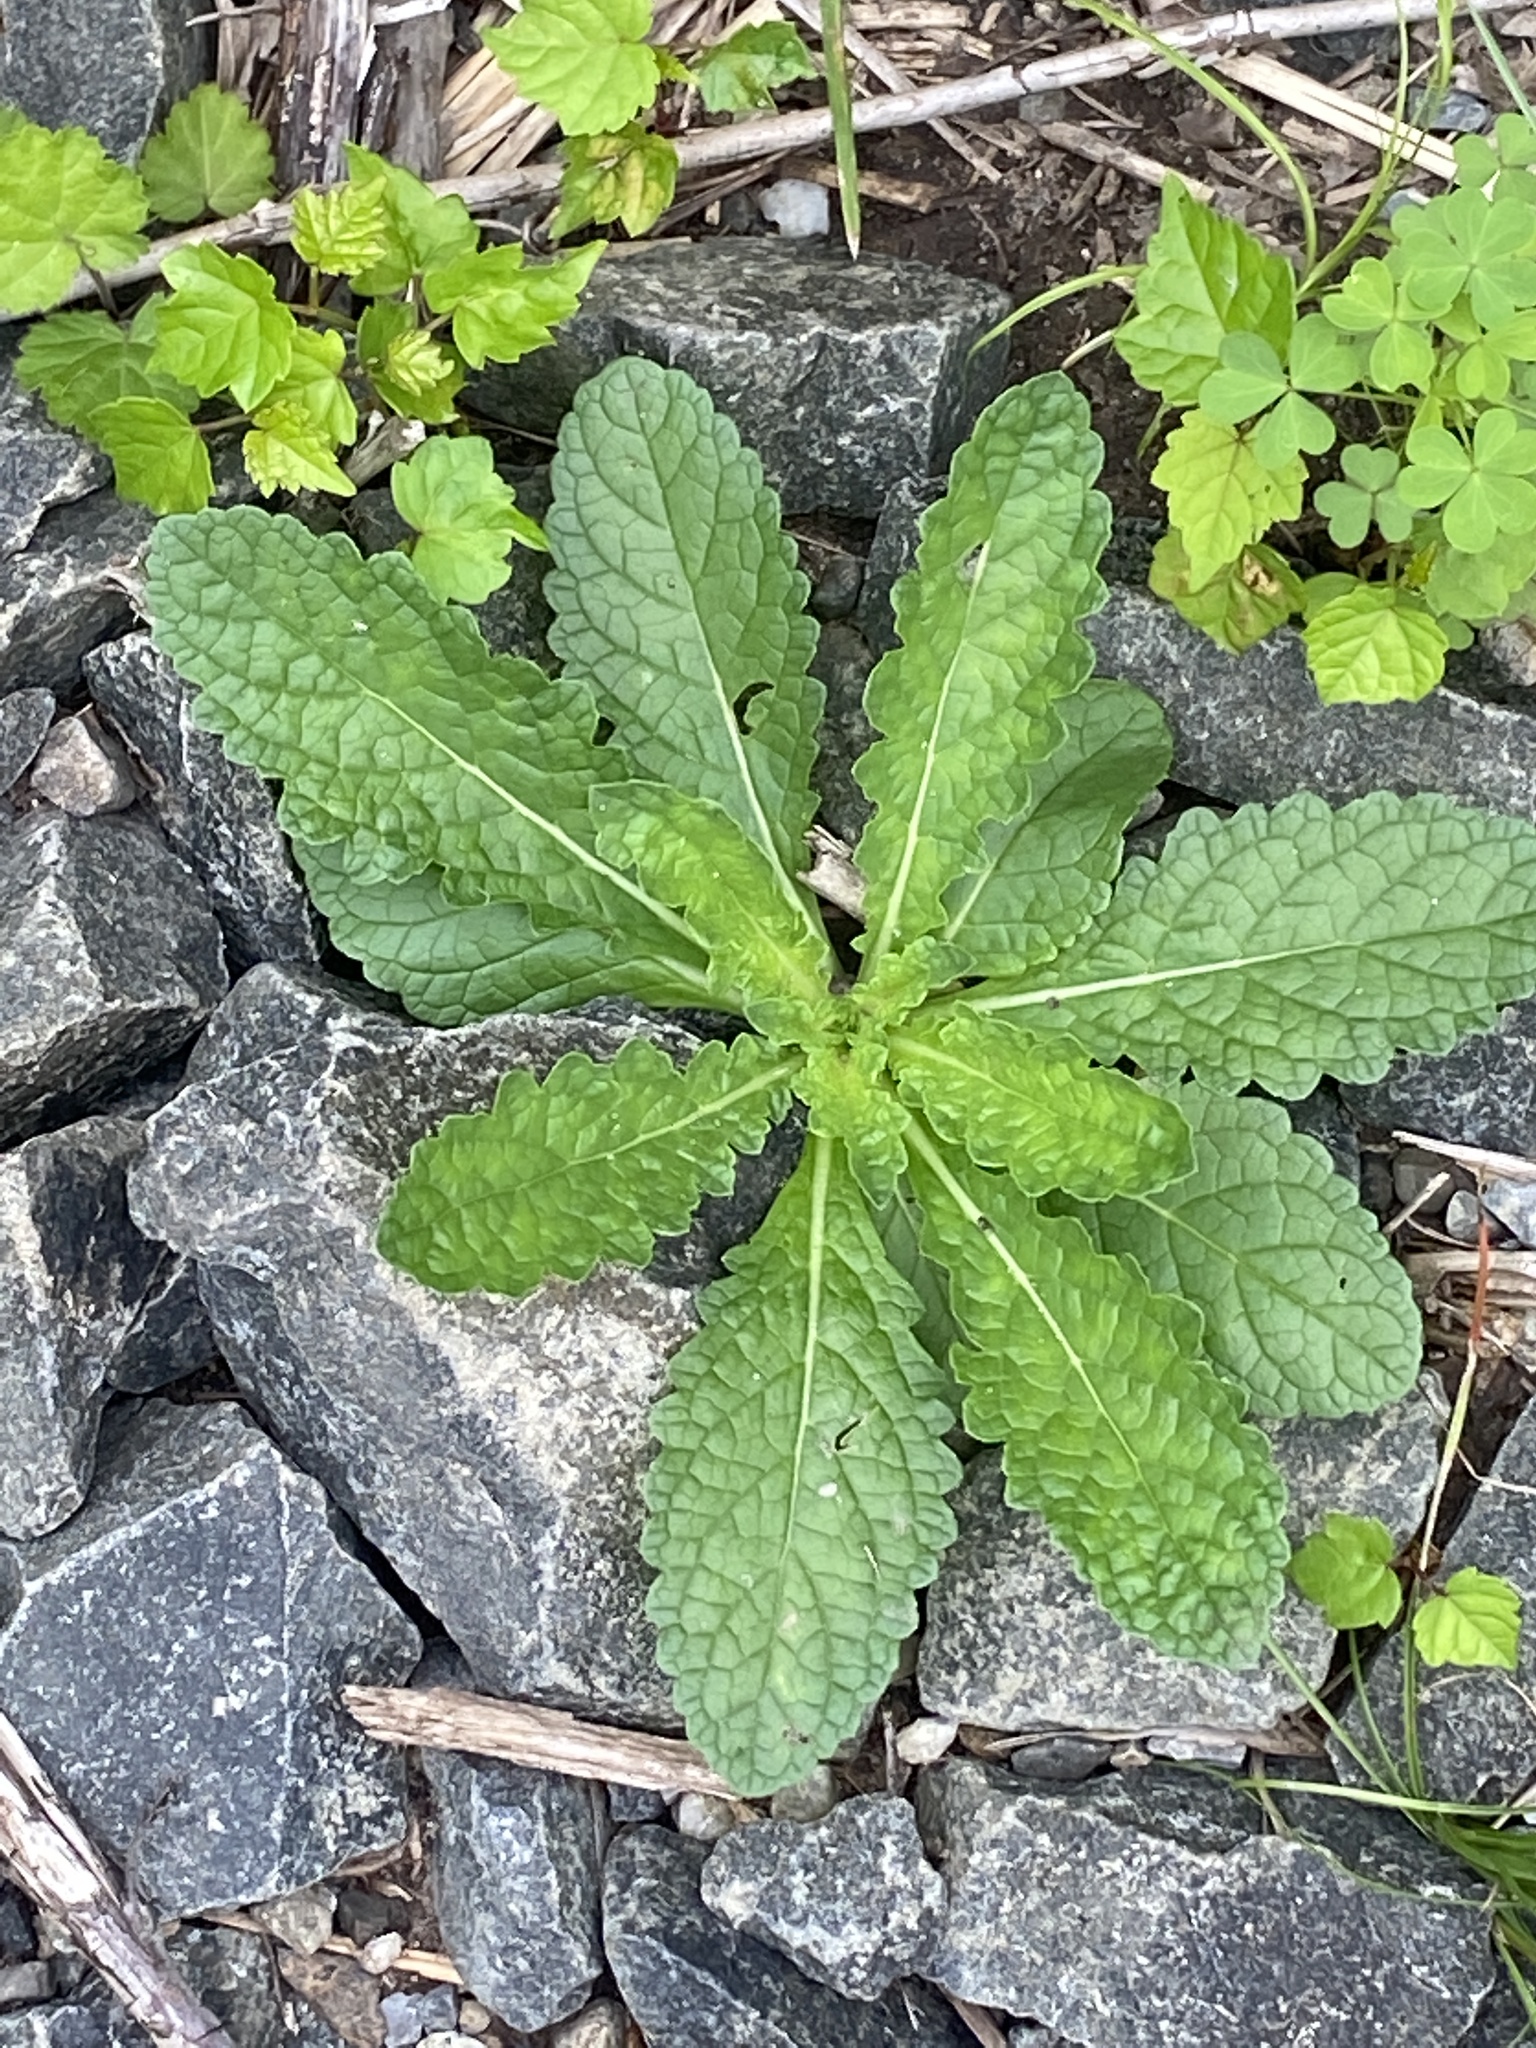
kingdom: Plantae
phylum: Tracheophyta
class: Magnoliopsida
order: Lamiales
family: Scrophulariaceae
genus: Verbascum
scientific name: Verbascum blattaria
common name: Moth mullein
